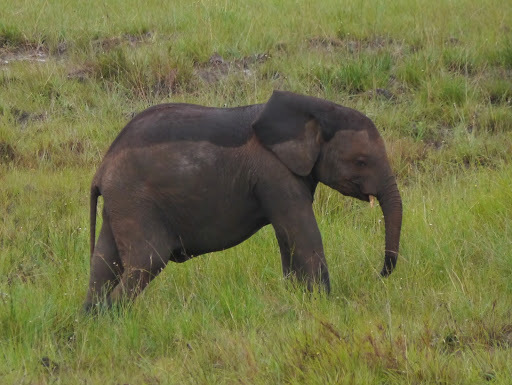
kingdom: Animalia
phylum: Chordata
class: Mammalia
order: Proboscidea
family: Elephantidae
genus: Loxodonta
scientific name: Loxodonta cyclotis
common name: African forest elephant
